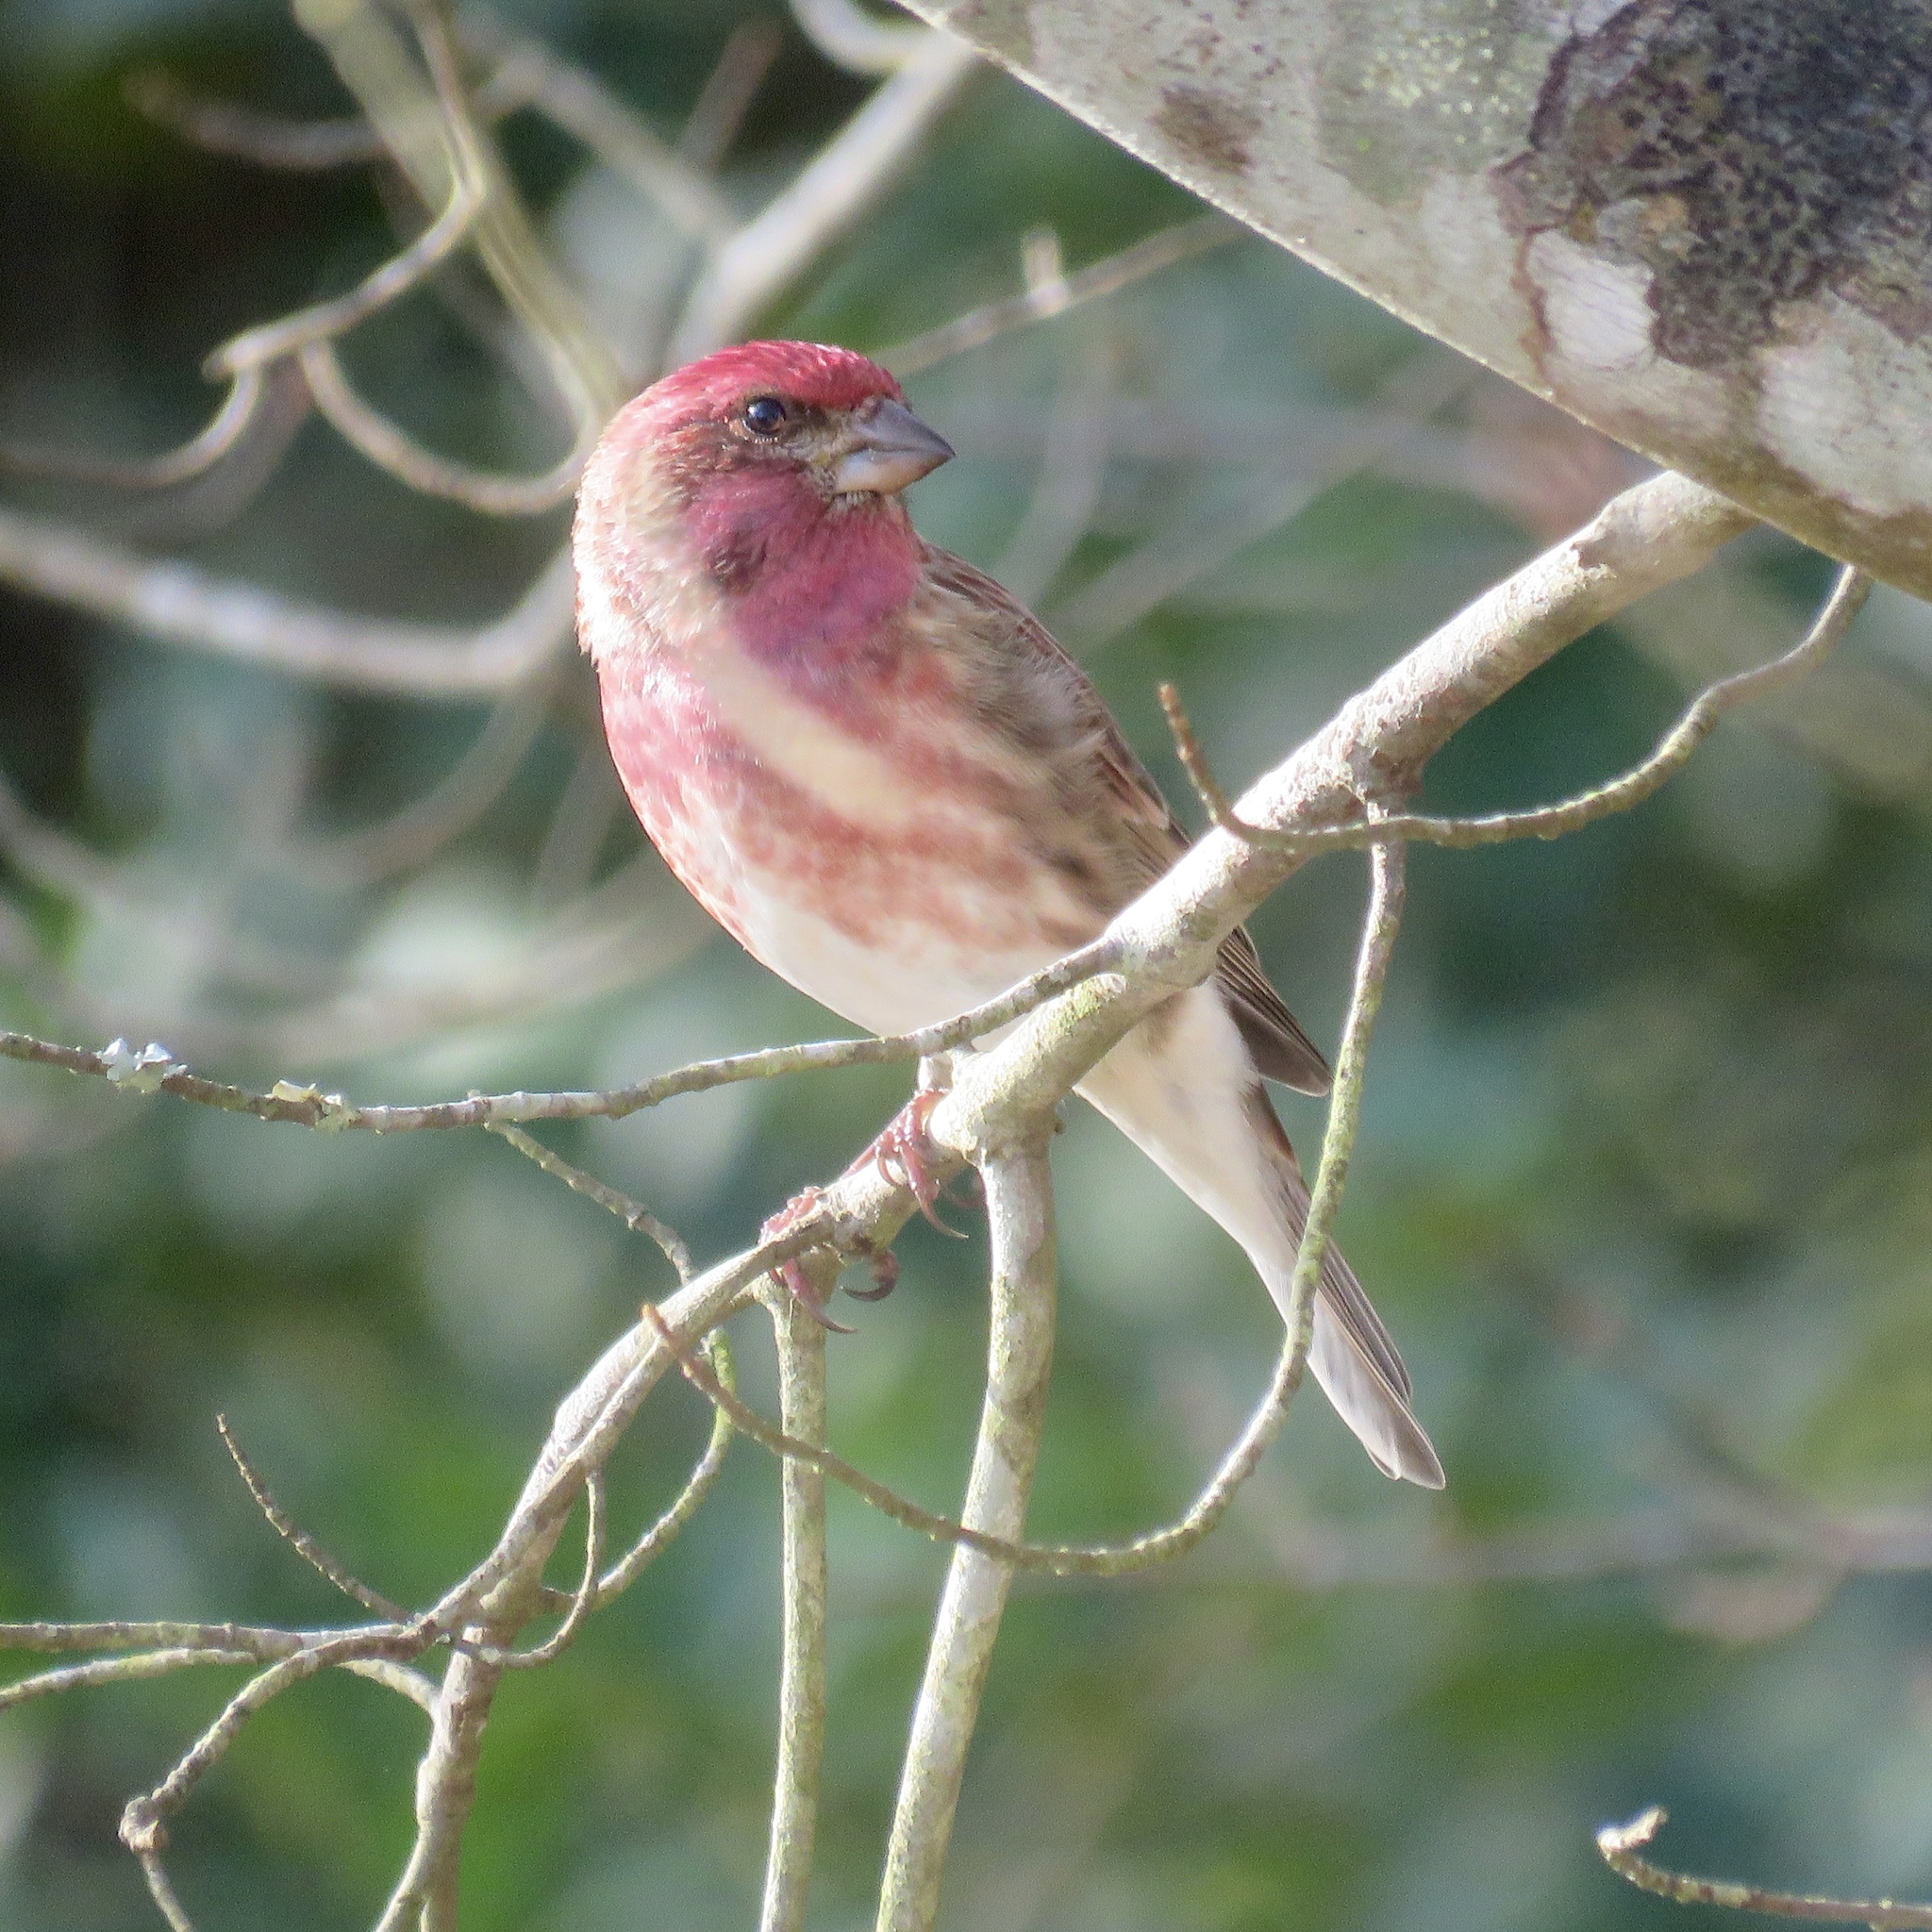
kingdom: Animalia
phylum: Chordata
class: Aves
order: Passeriformes
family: Fringillidae
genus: Haemorhous
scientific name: Haemorhous purpureus
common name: Purple finch
